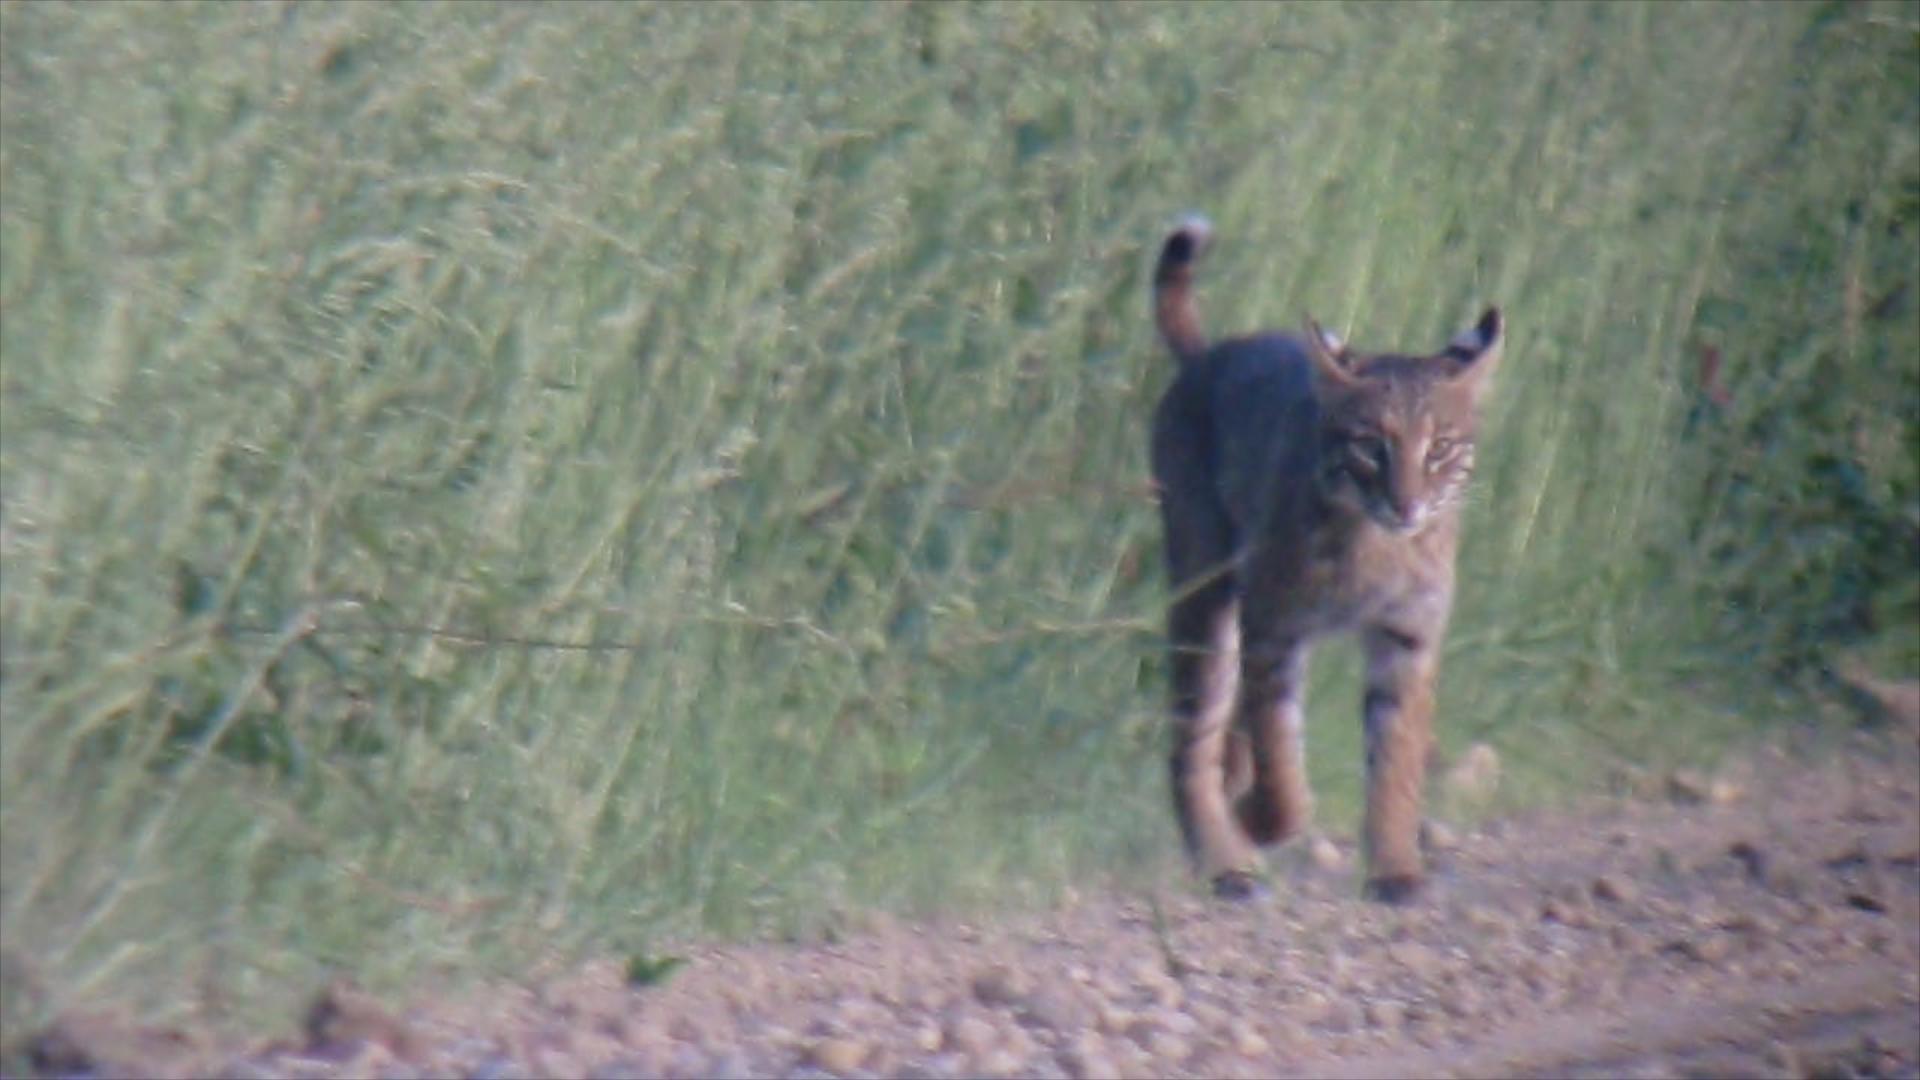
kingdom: Animalia
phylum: Chordata
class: Mammalia
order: Carnivora
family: Felidae
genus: Lynx
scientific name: Lynx rufus
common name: Bobcat
